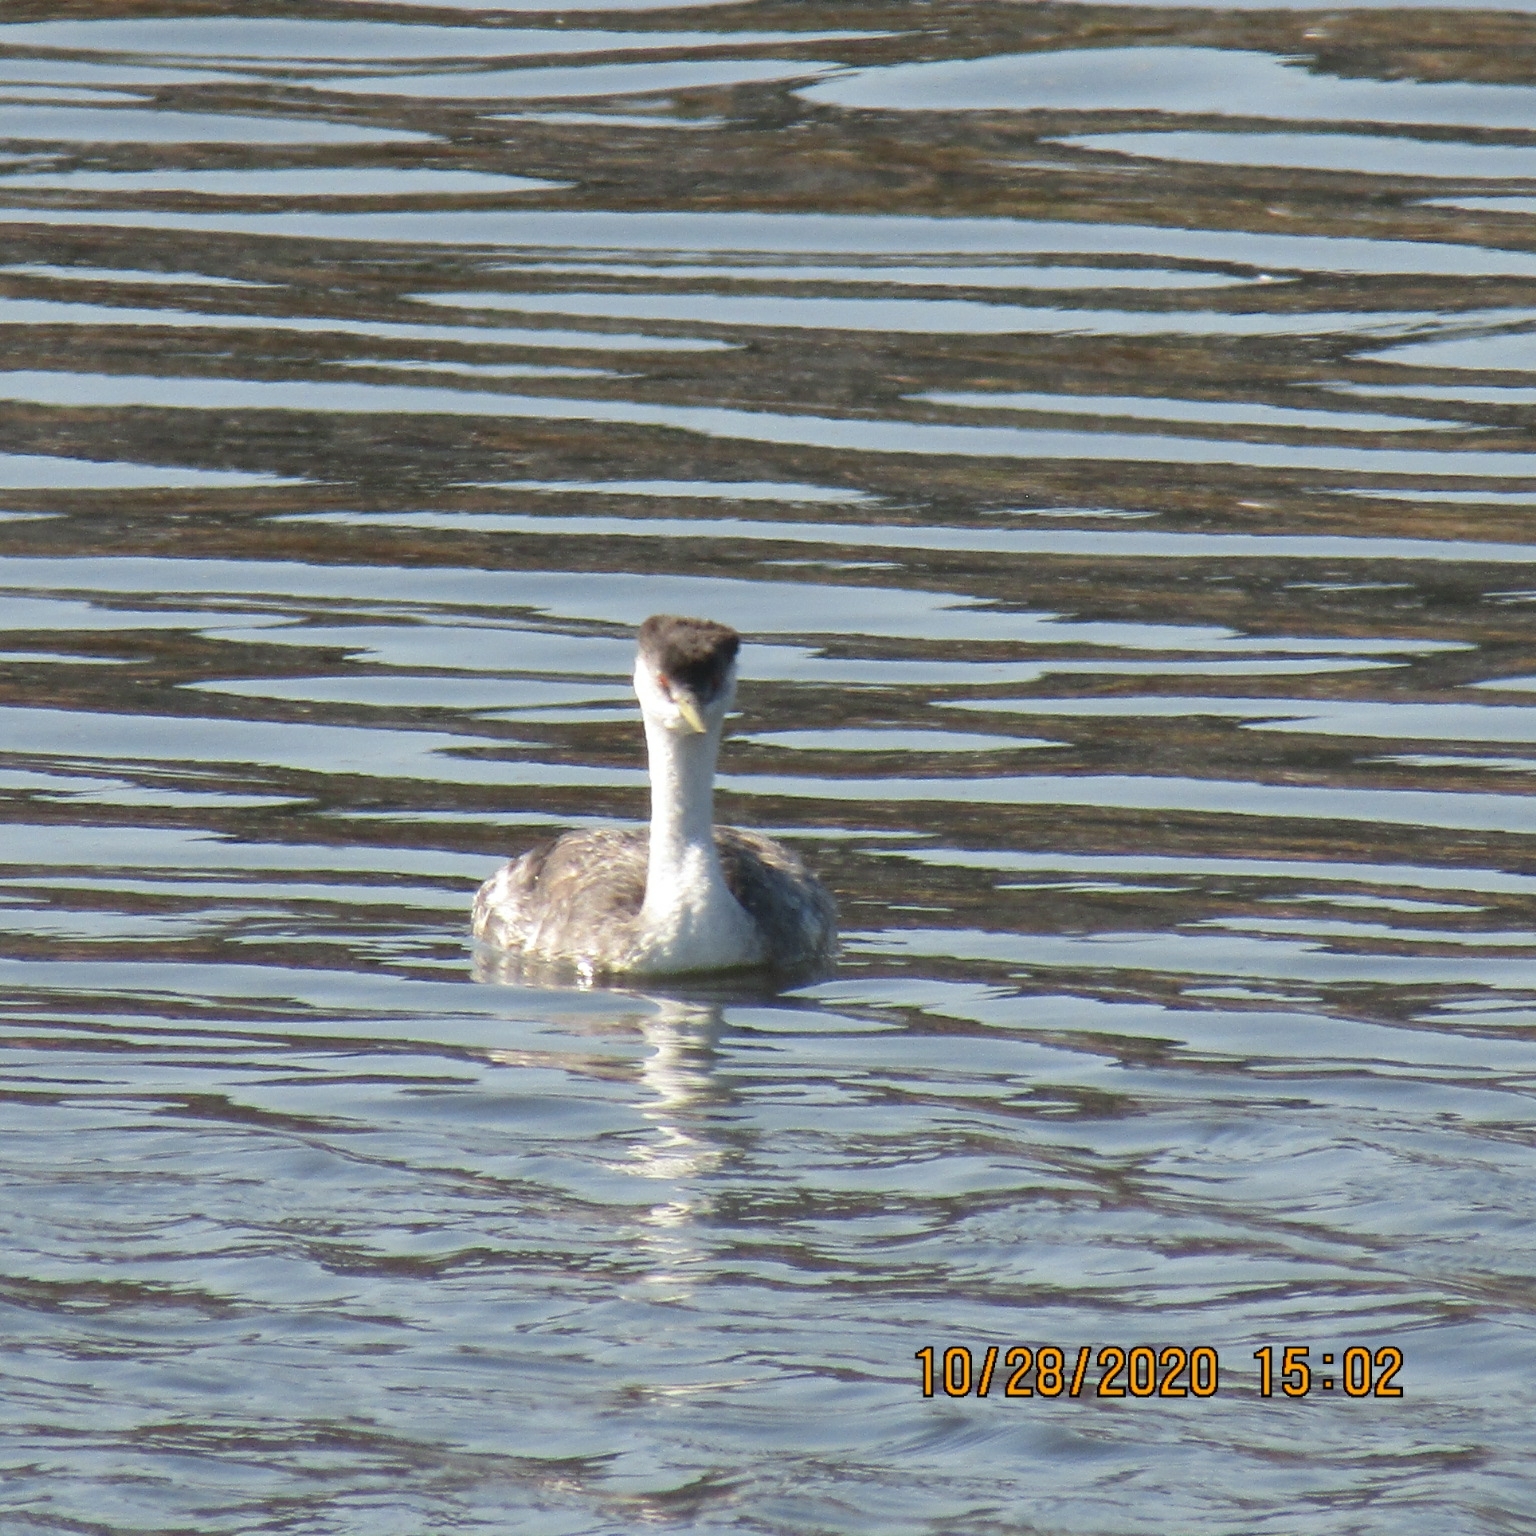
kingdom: Animalia
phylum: Chordata
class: Aves
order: Podicipediformes
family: Podicipedidae
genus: Aechmophorus
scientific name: Aechmophorus occidentalis
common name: Western grebe
